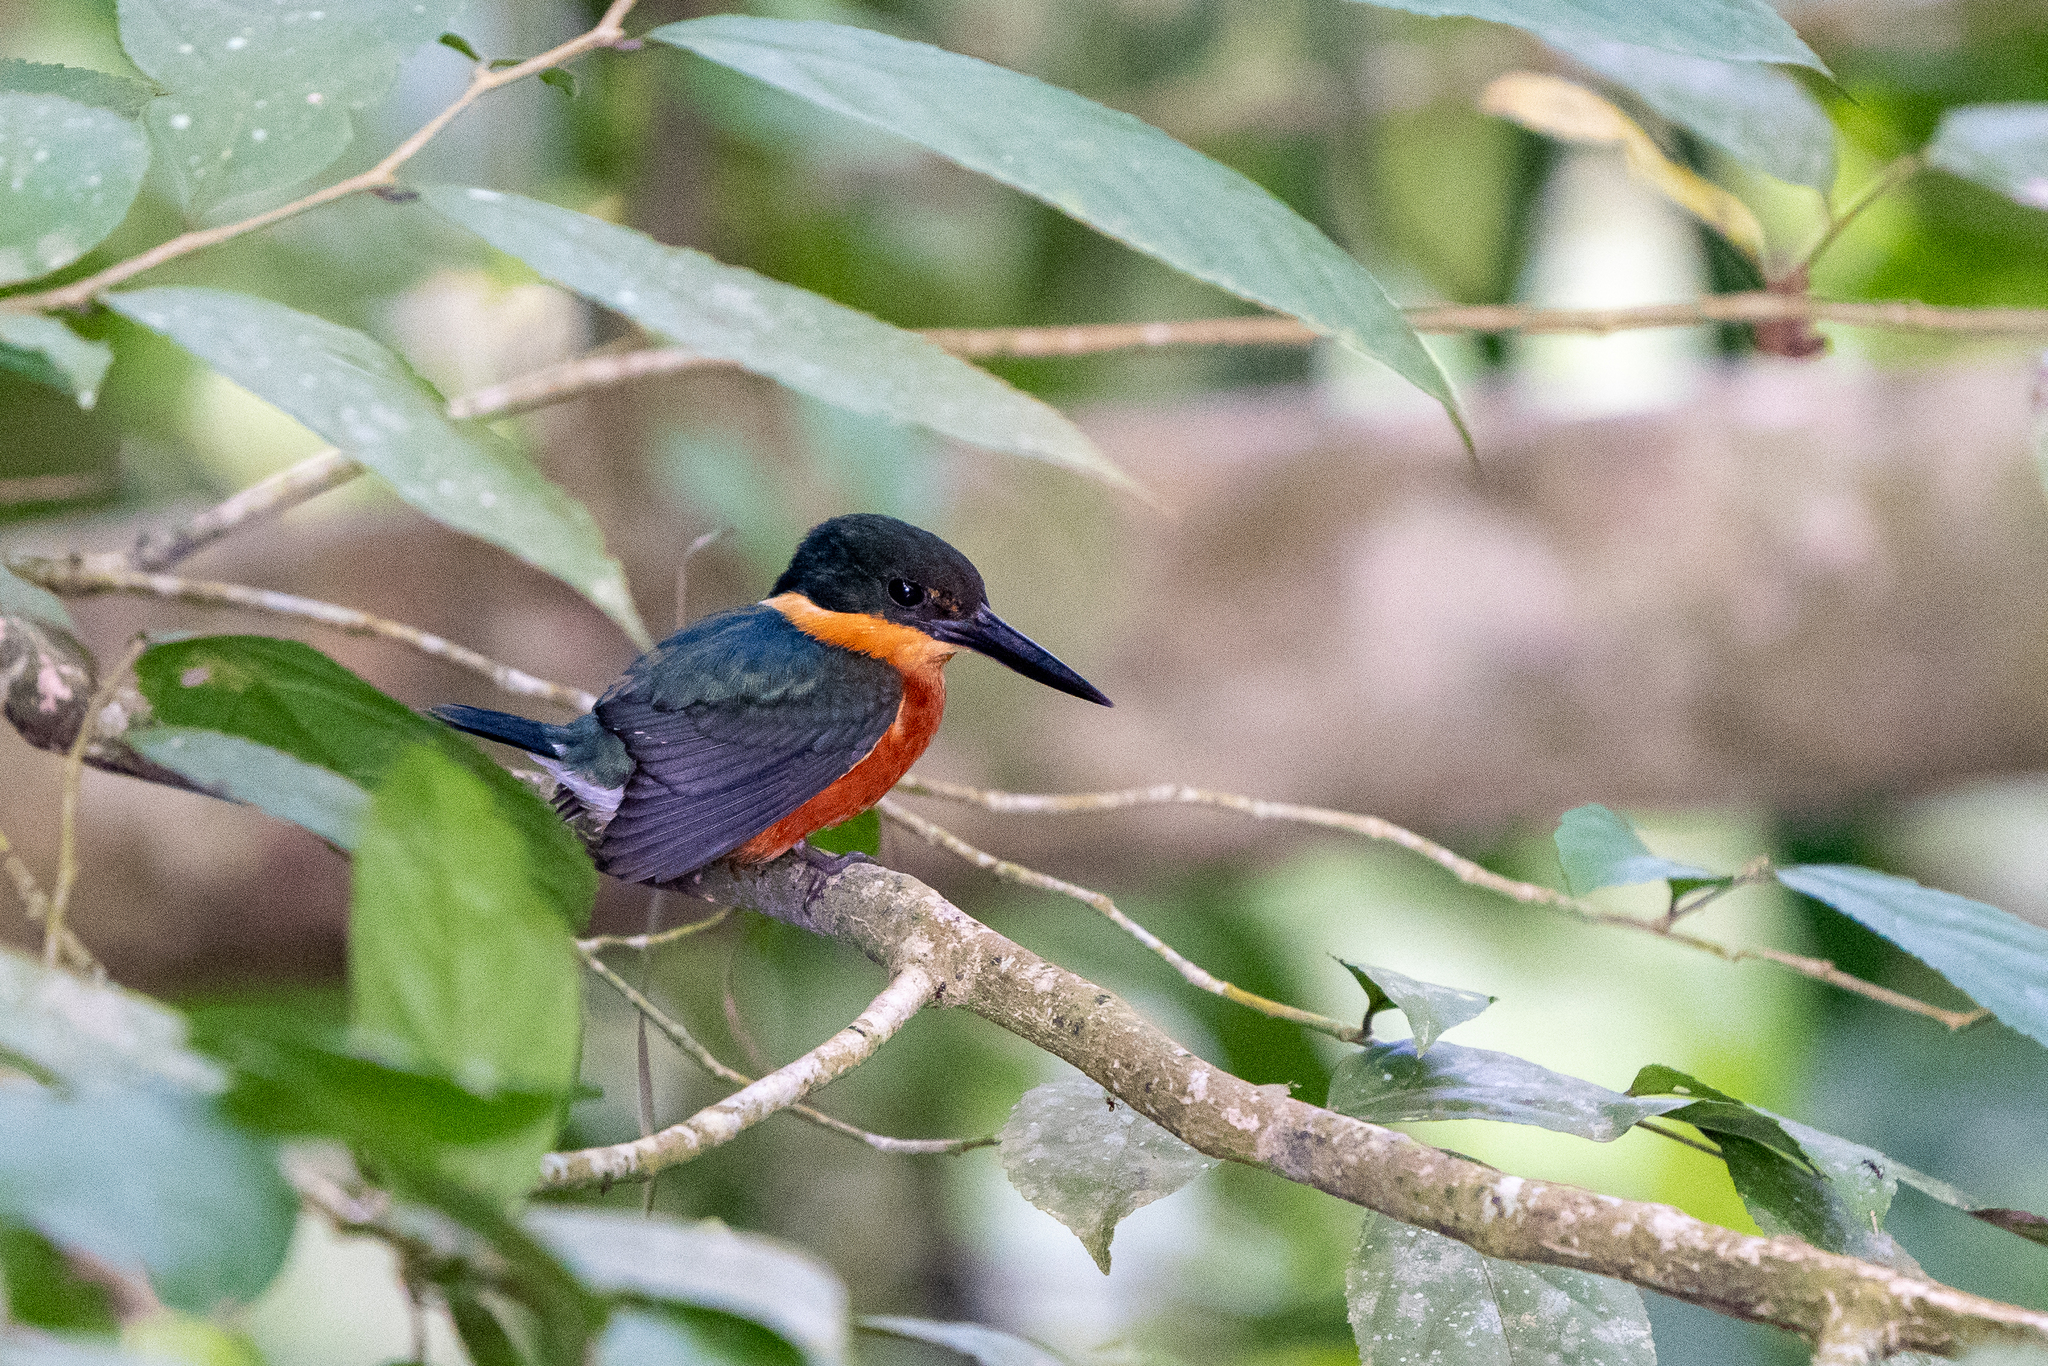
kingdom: Animalia
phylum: Chordata
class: Aves
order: Coraciiformes
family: Alcedinidae
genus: Chloroceryle
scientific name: Chloroceryle aenea
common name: American pygmy kingfisher
